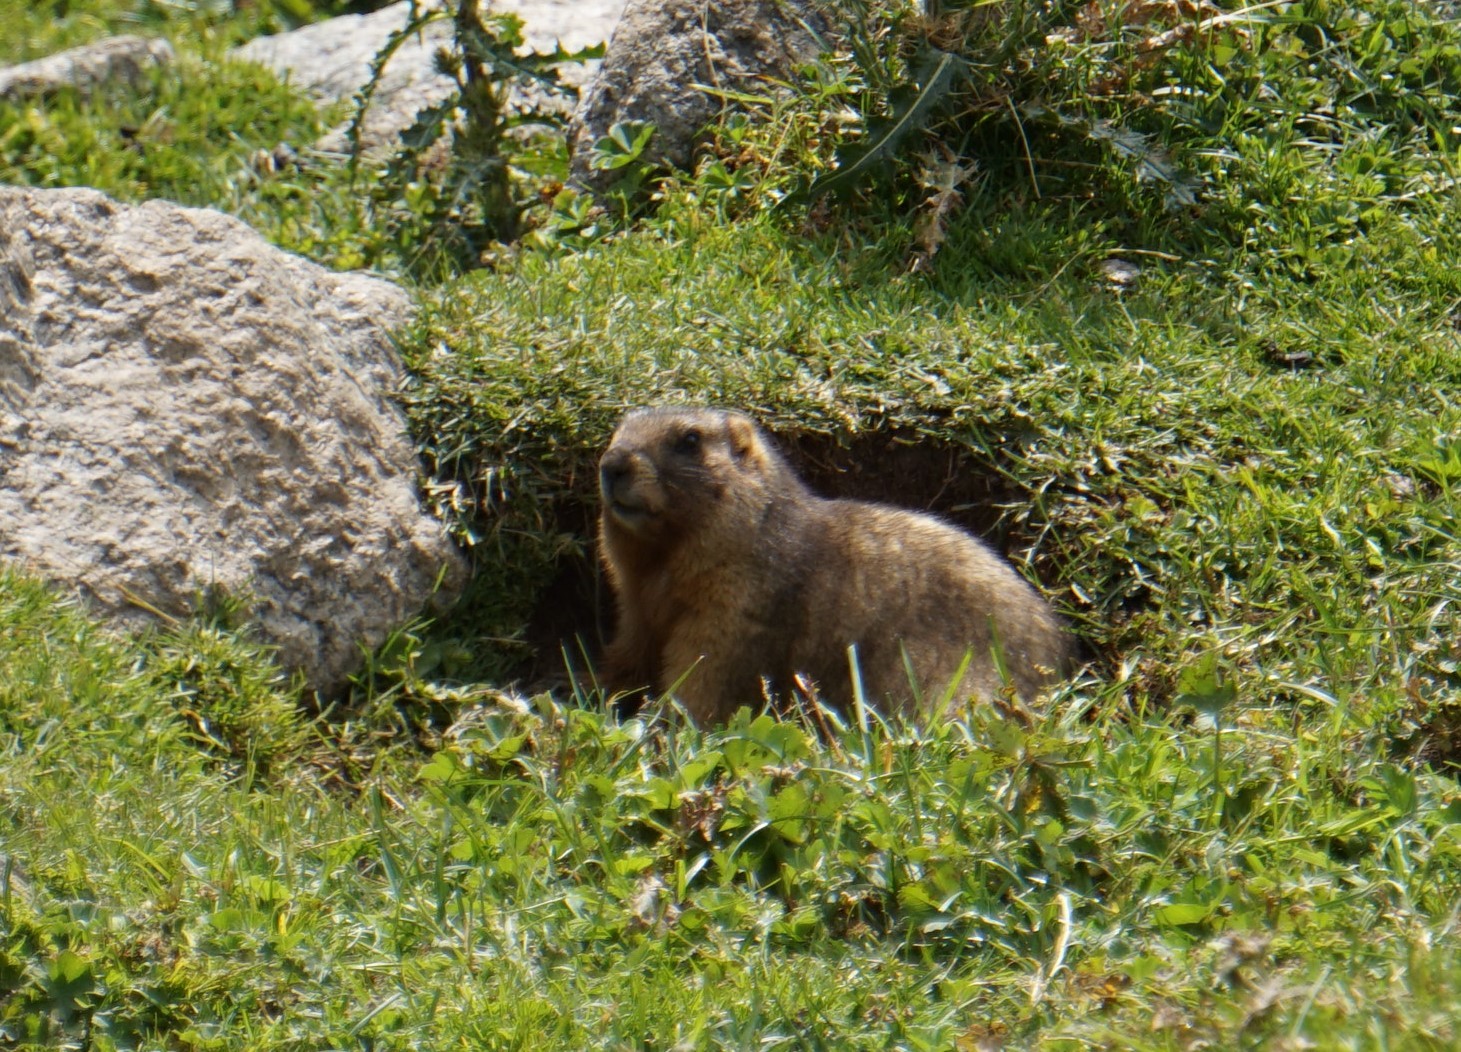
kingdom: Animalia
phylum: Chordata
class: Mammalia
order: Rodentia
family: Sciuridae
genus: Marmota
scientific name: Marmota baibacina
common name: Gray marmot
